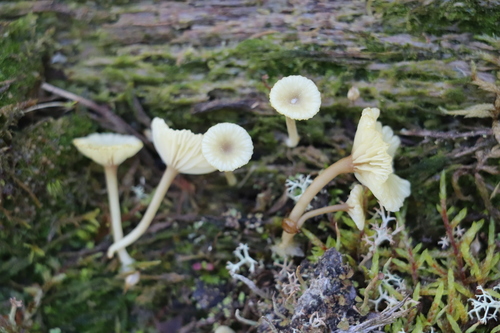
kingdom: Fungi
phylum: Basidiomycota
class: Agaricomycetes
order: Agaricales
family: Hygrophoraceae
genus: Lichenomphalia
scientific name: Lichenomphalia umbellifera
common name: Heath navel
